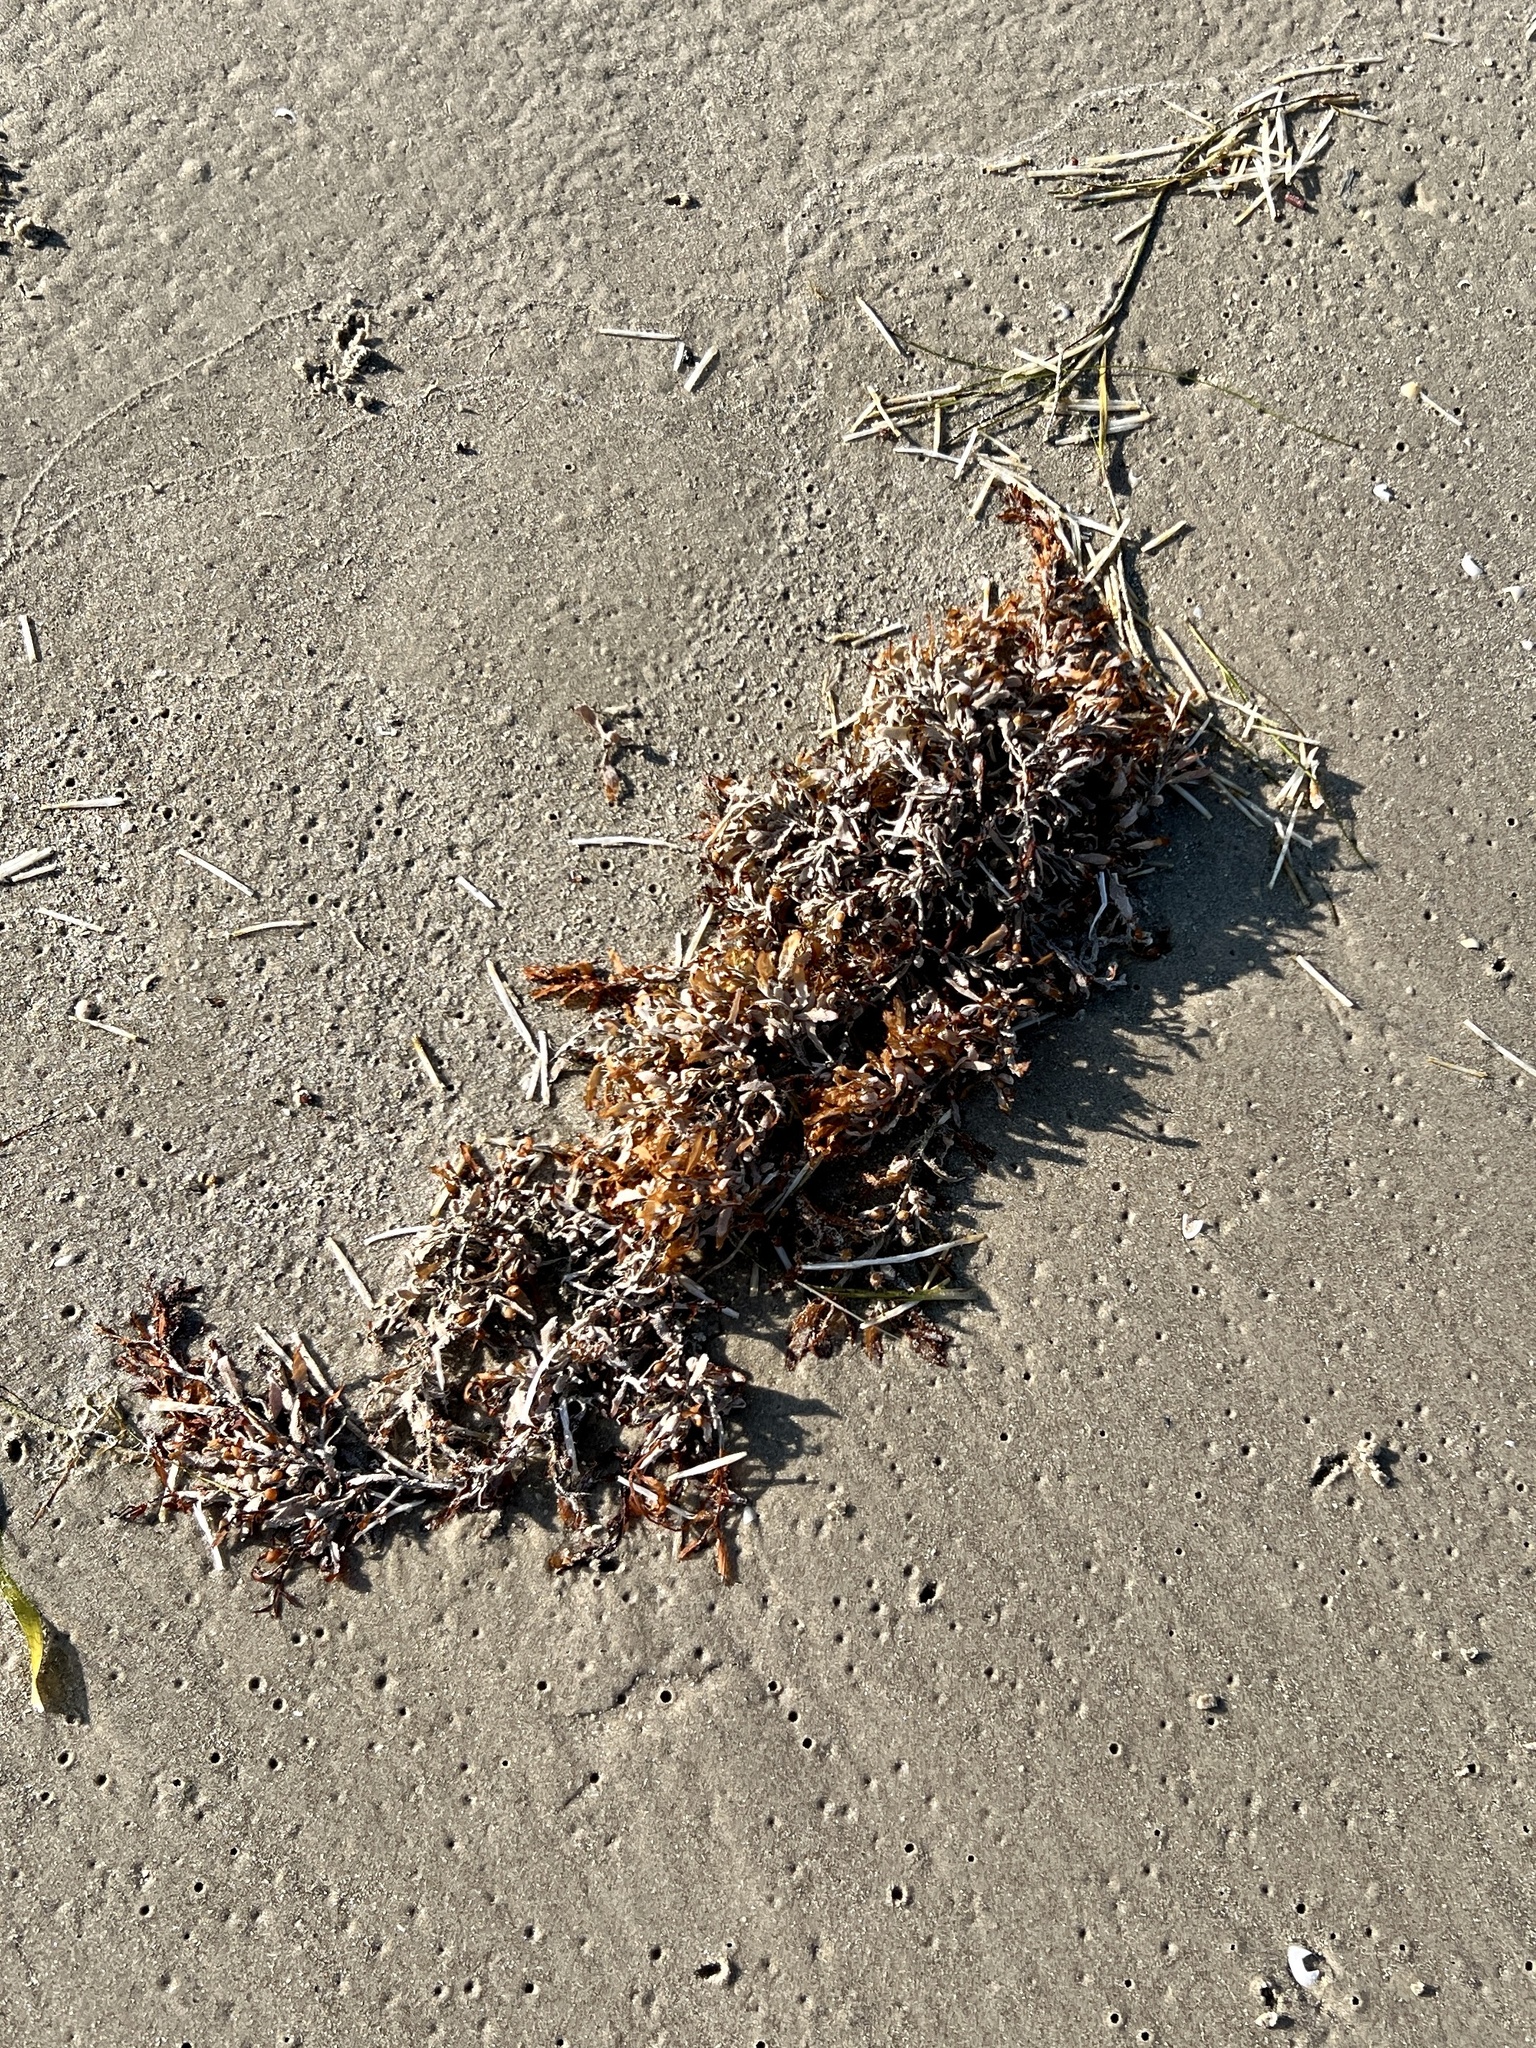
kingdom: Chromista
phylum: Ochrophyta
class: Phaeophyceae
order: Fucales
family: Sargassaceae
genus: Sargassum
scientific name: Sargassum fluitans
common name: Sargassum seaweed
